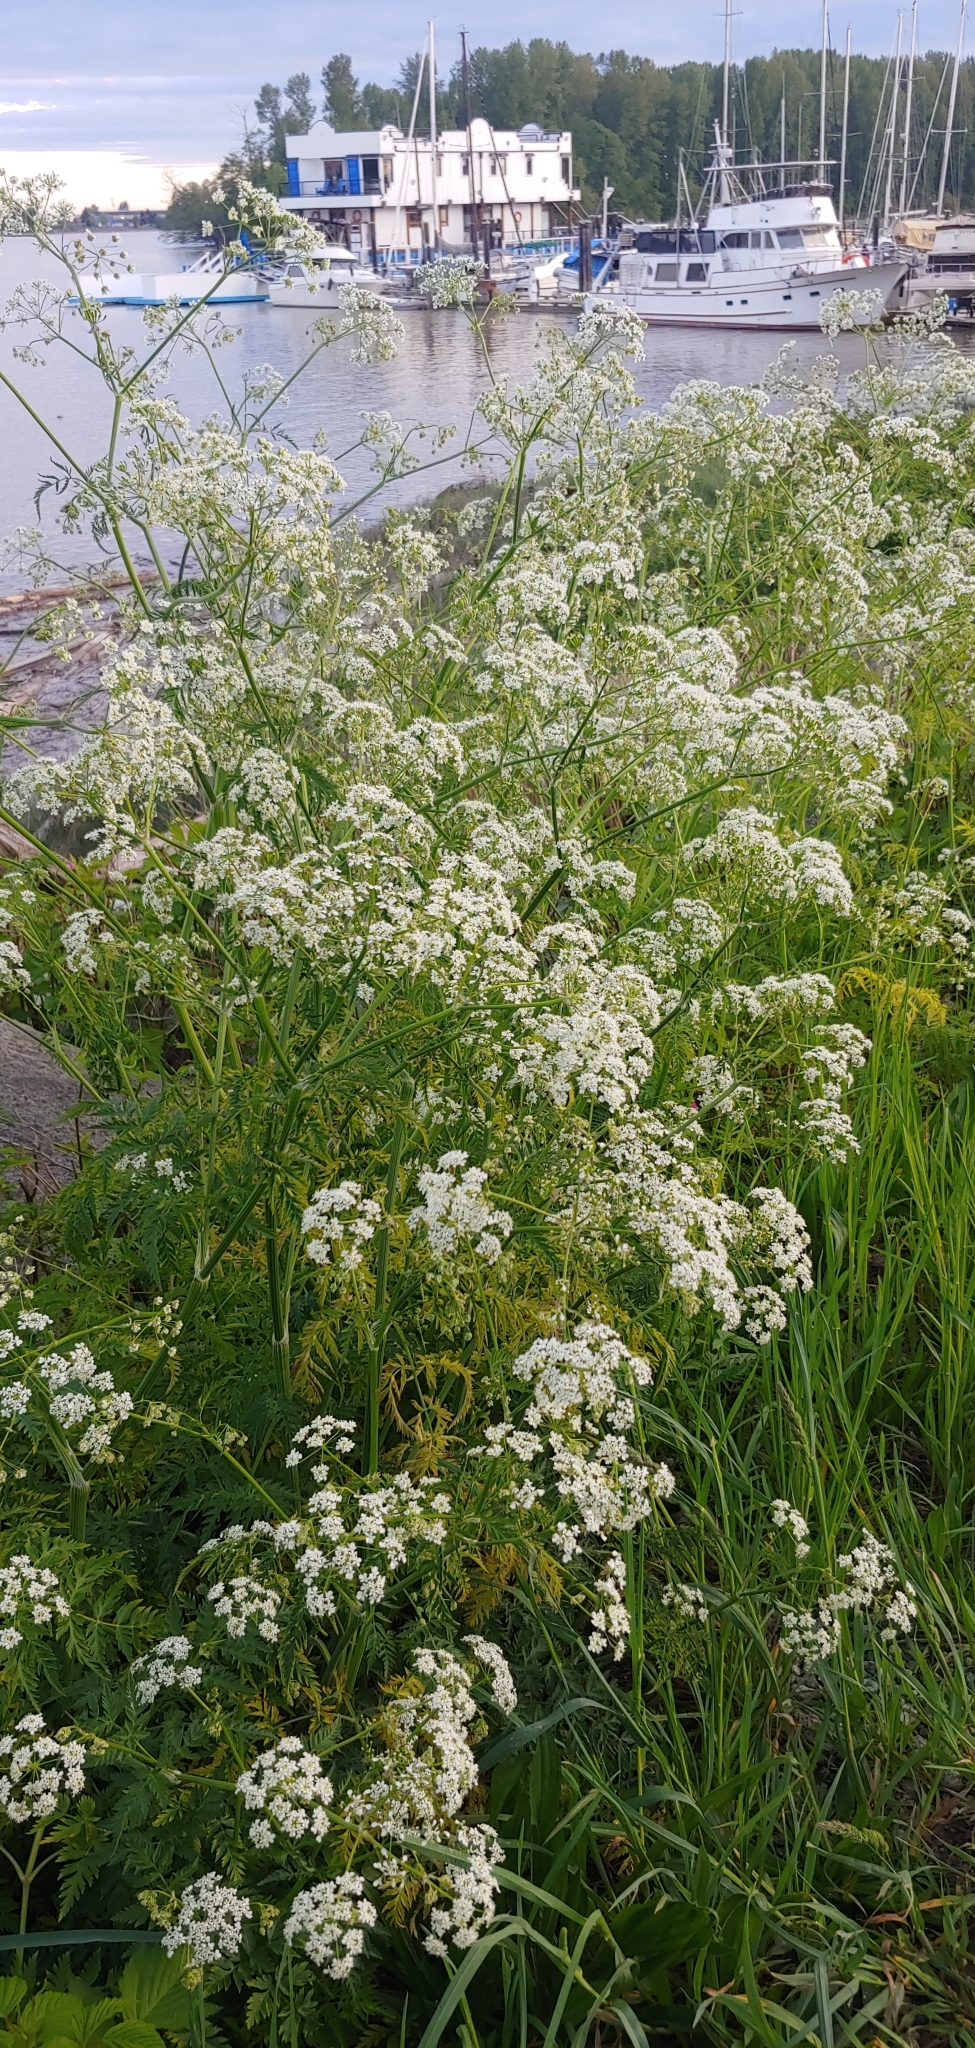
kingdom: Plantae
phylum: Tracheophyta
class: Magnoliopsida
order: Apiales
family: Apiaceae
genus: Anthriscus
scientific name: Anthriscus sylvestris
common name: Cow parsley
